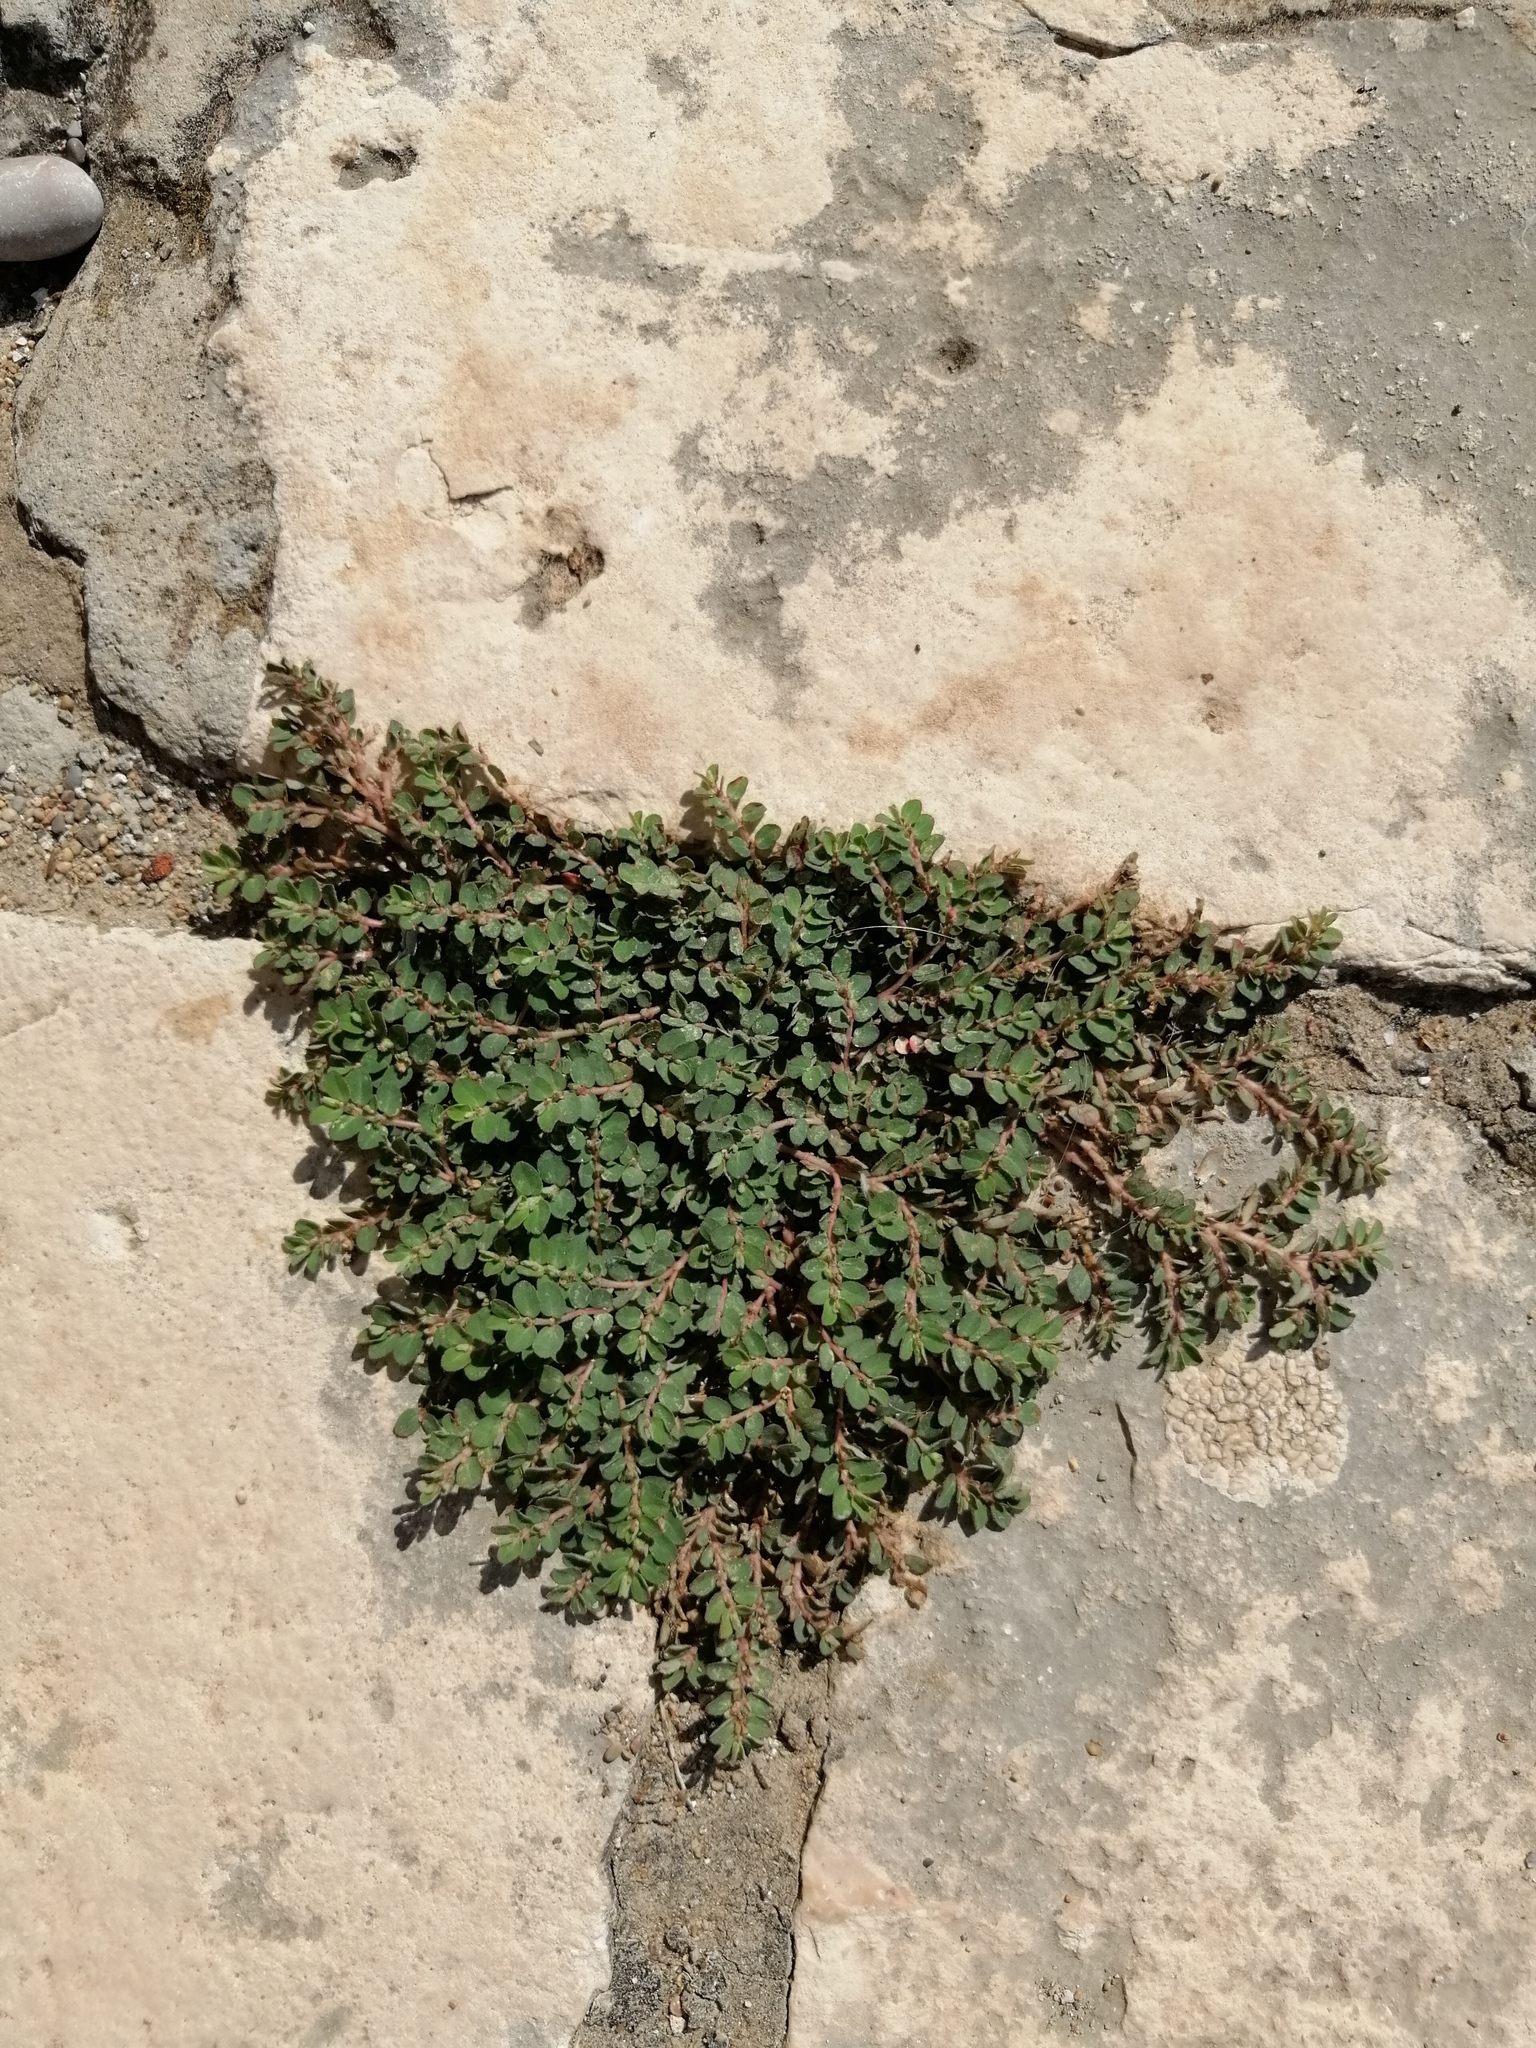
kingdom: Plantae
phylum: Tracheophyta
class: Magnoliopsida
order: Malpighiales
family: Euphorbiaceae
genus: Euphorbia
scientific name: Euphorbia prostrata
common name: Prostrate sandmat
